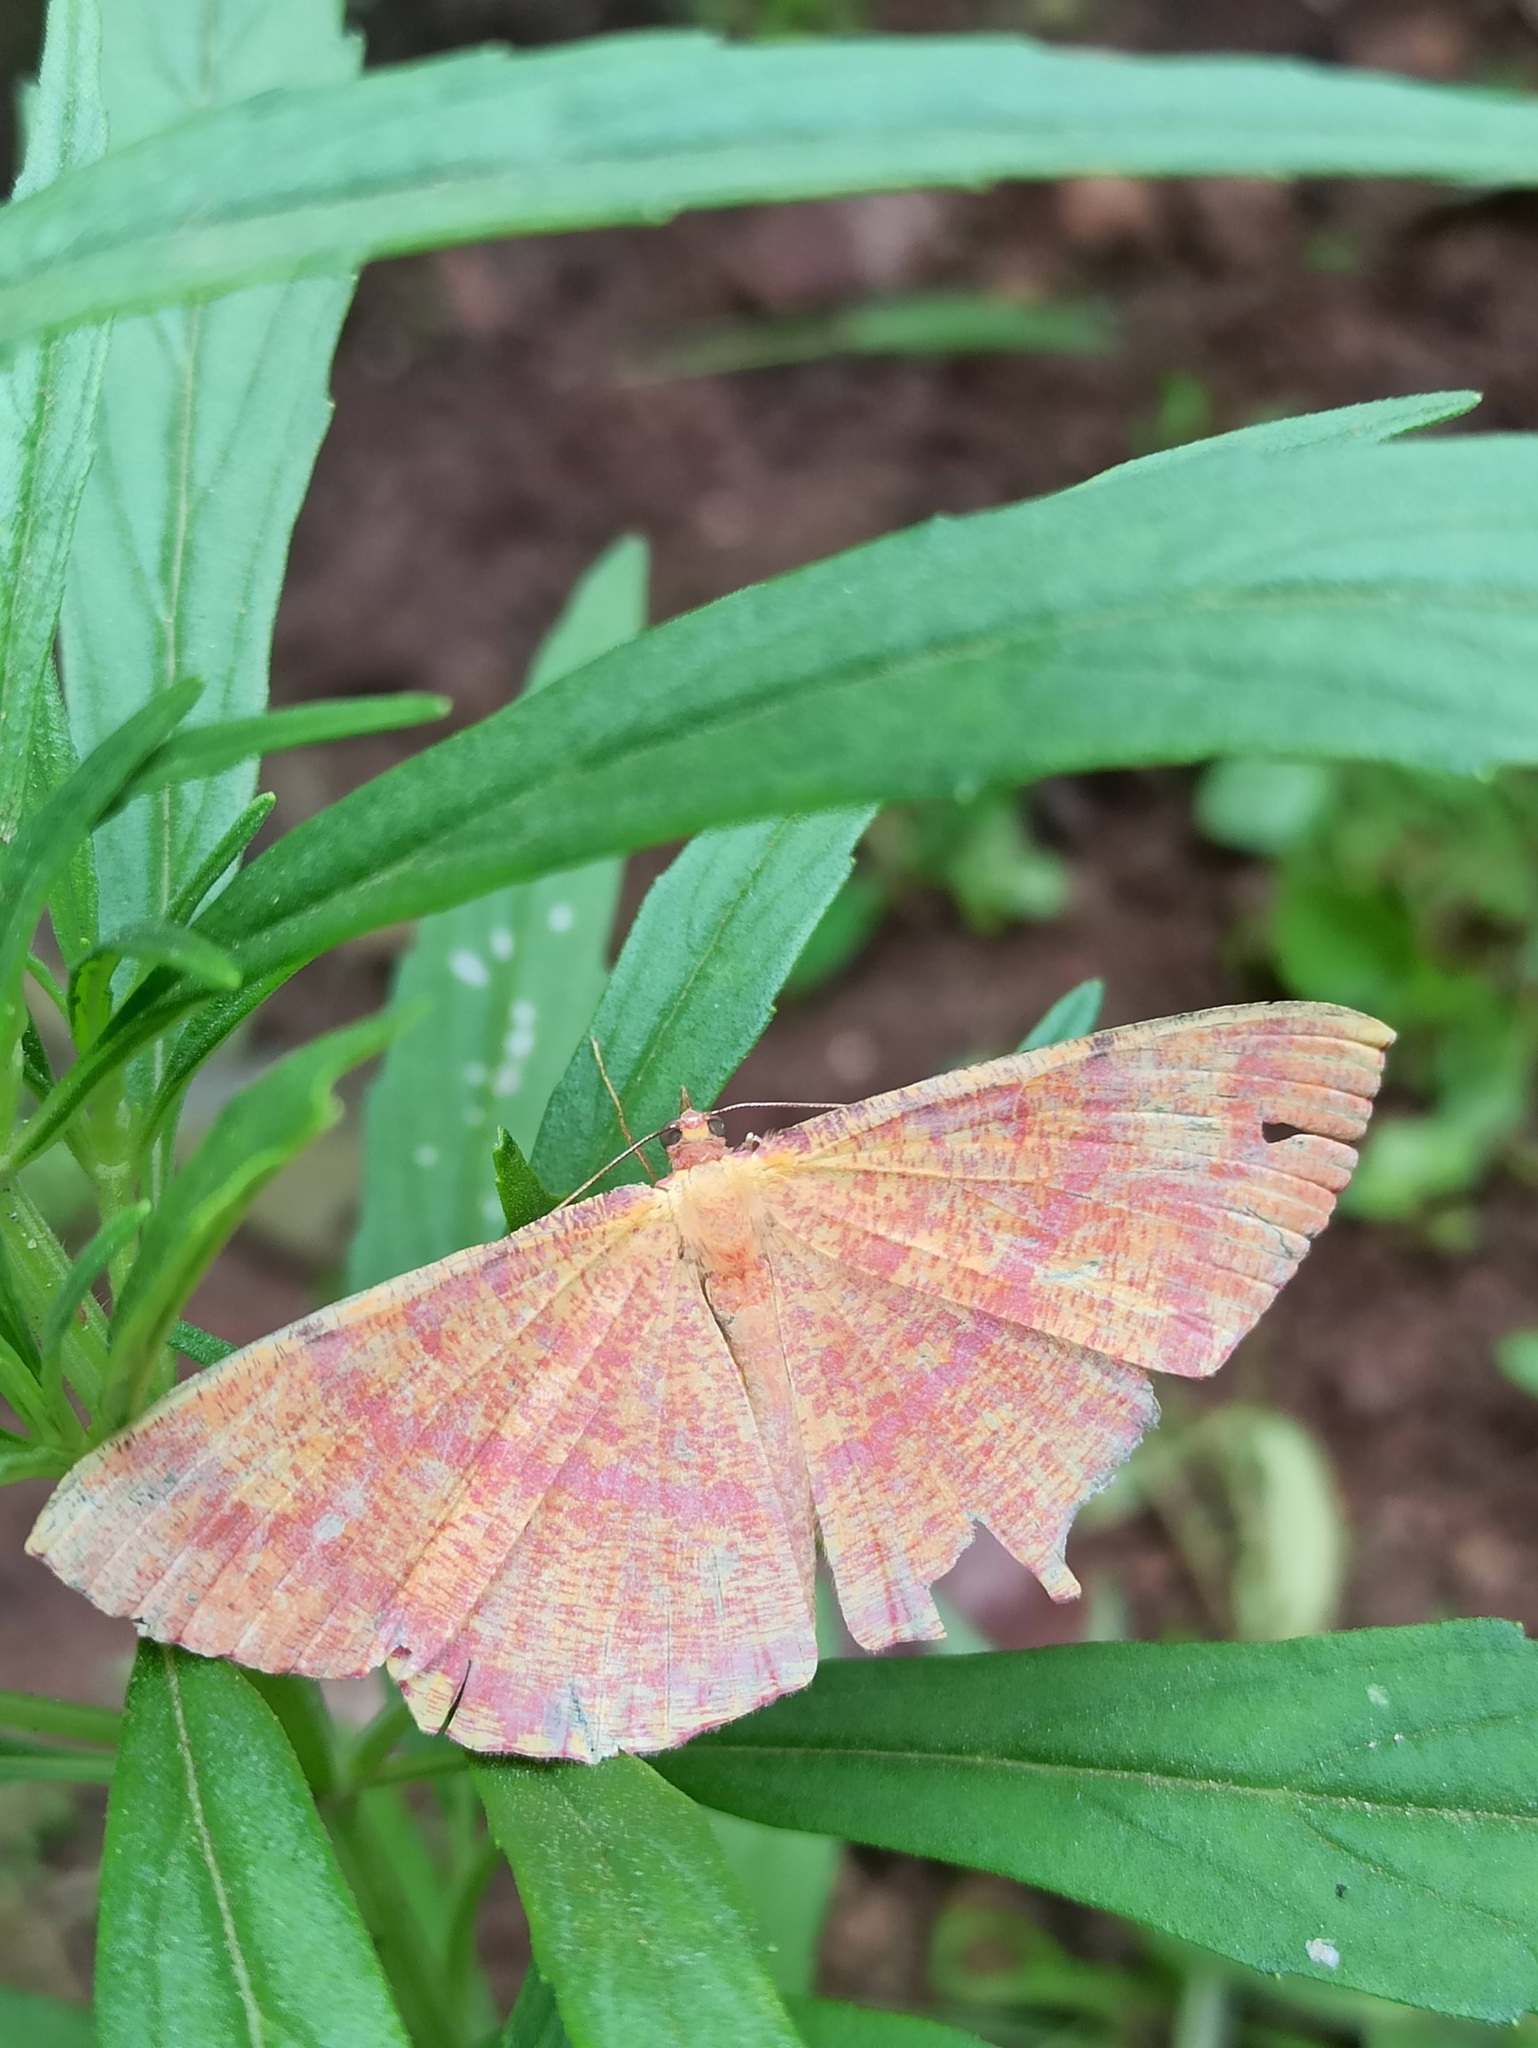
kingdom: Animalia
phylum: Arthropoda
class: Insecta
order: Lepidoptera
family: Geometridae
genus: Eumelea
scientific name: Eumelea rosalia
